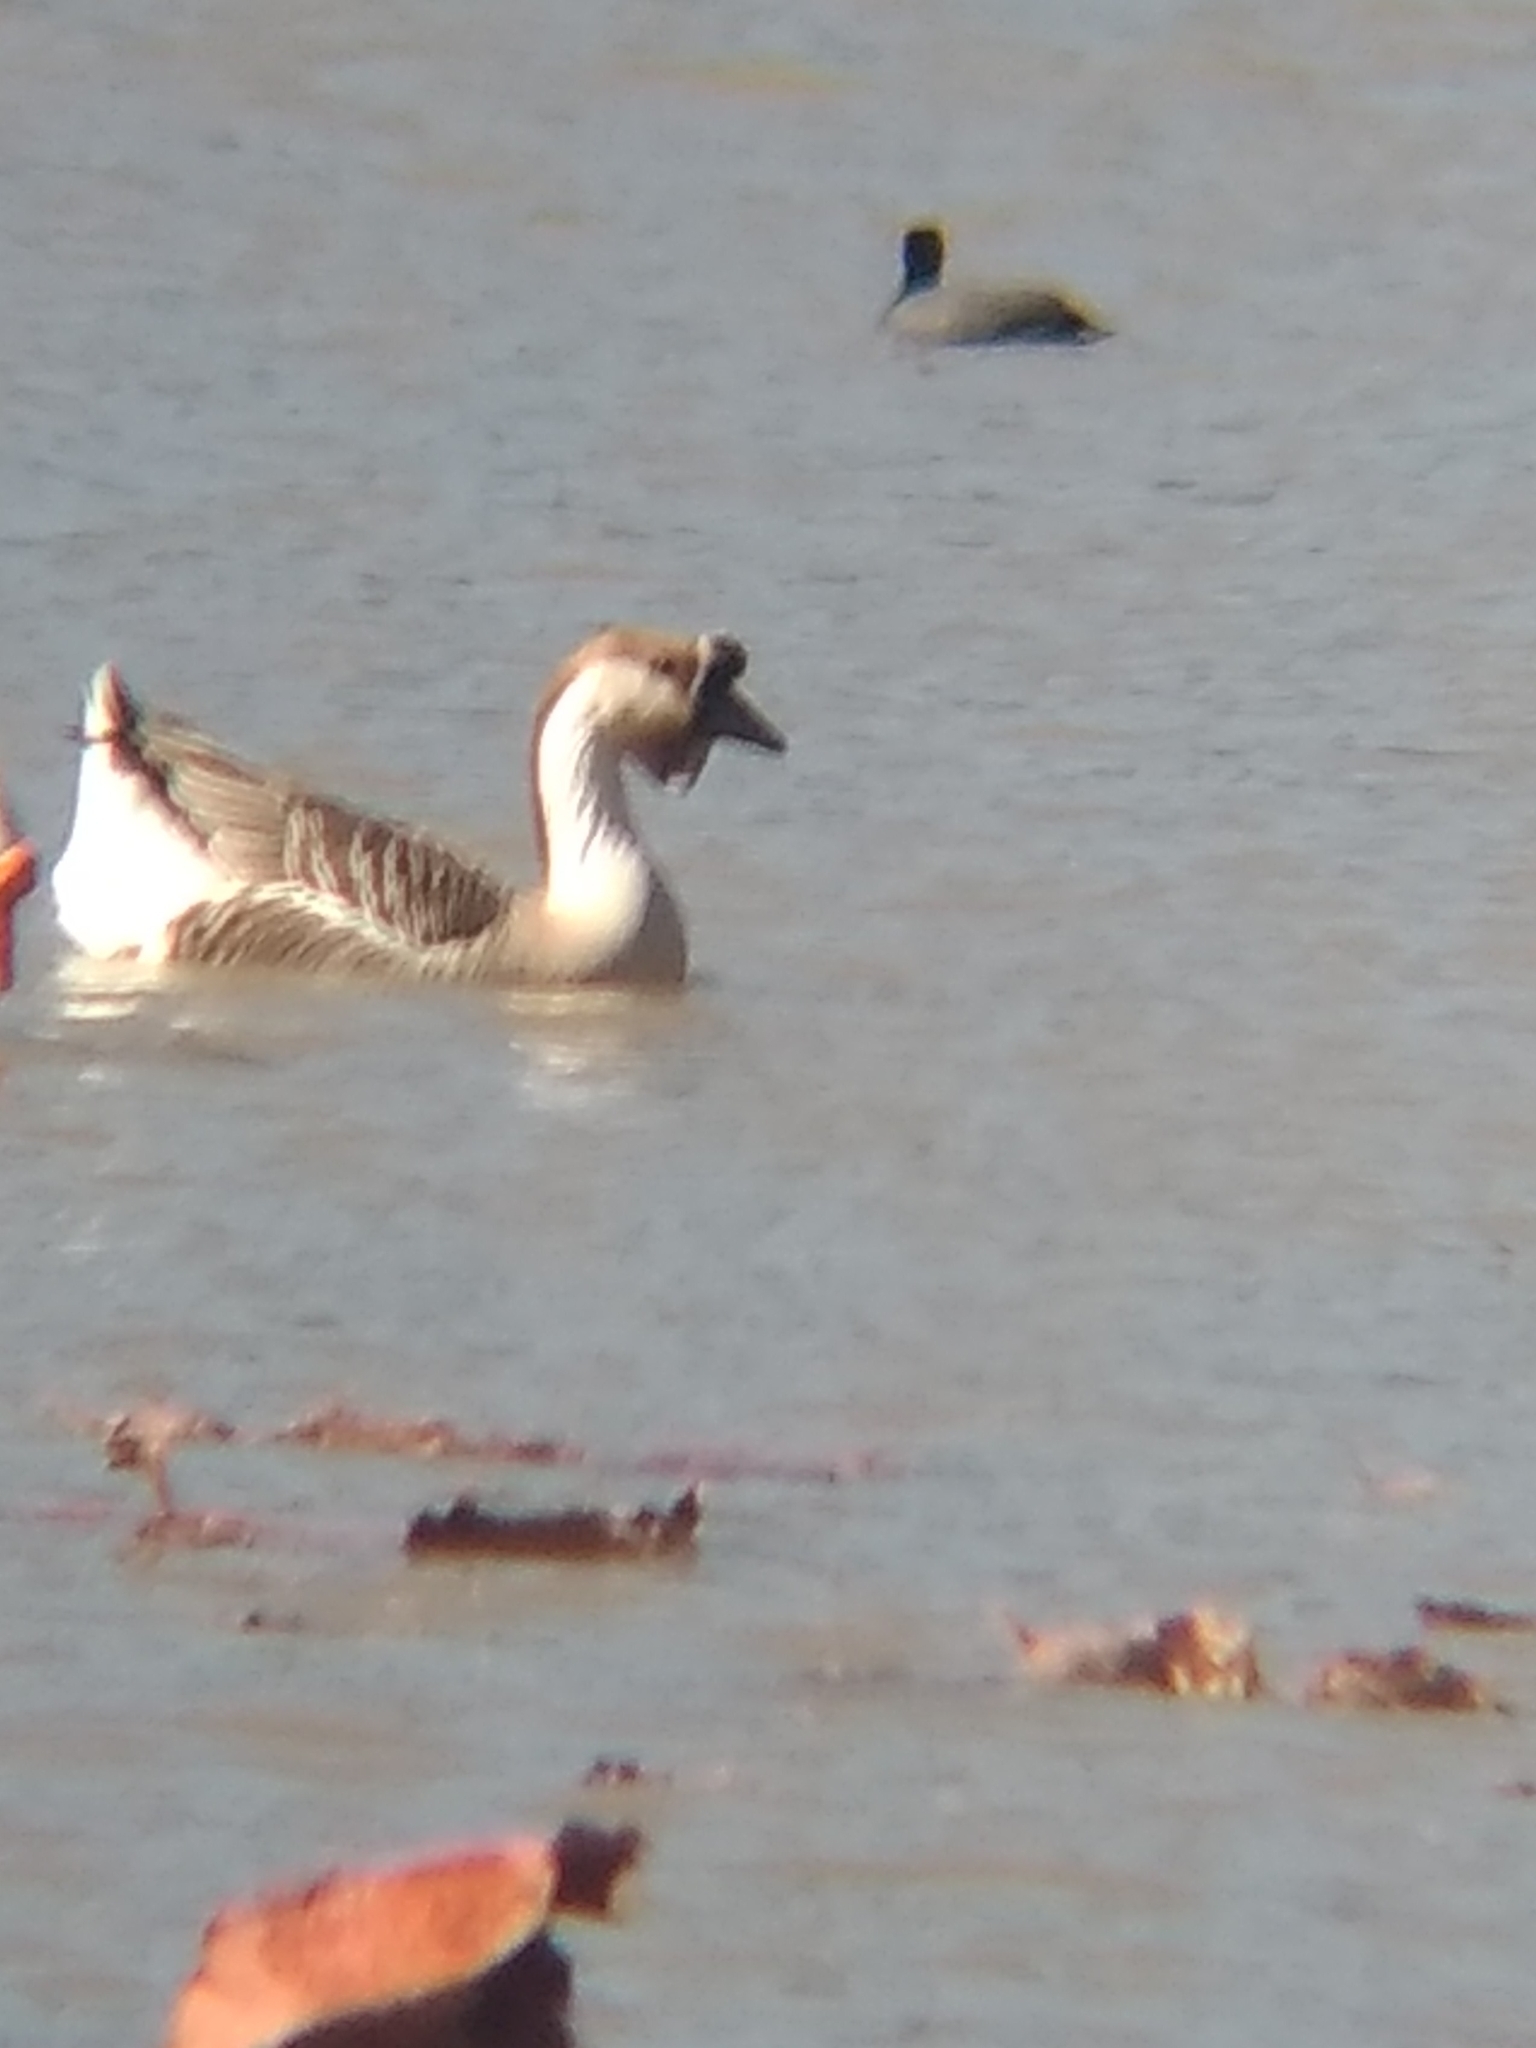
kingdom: Animalia
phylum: Chordata
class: Aves
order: Anseriformes
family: Anatidae
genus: Anser
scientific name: Anser cygnoides
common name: Swan goose
